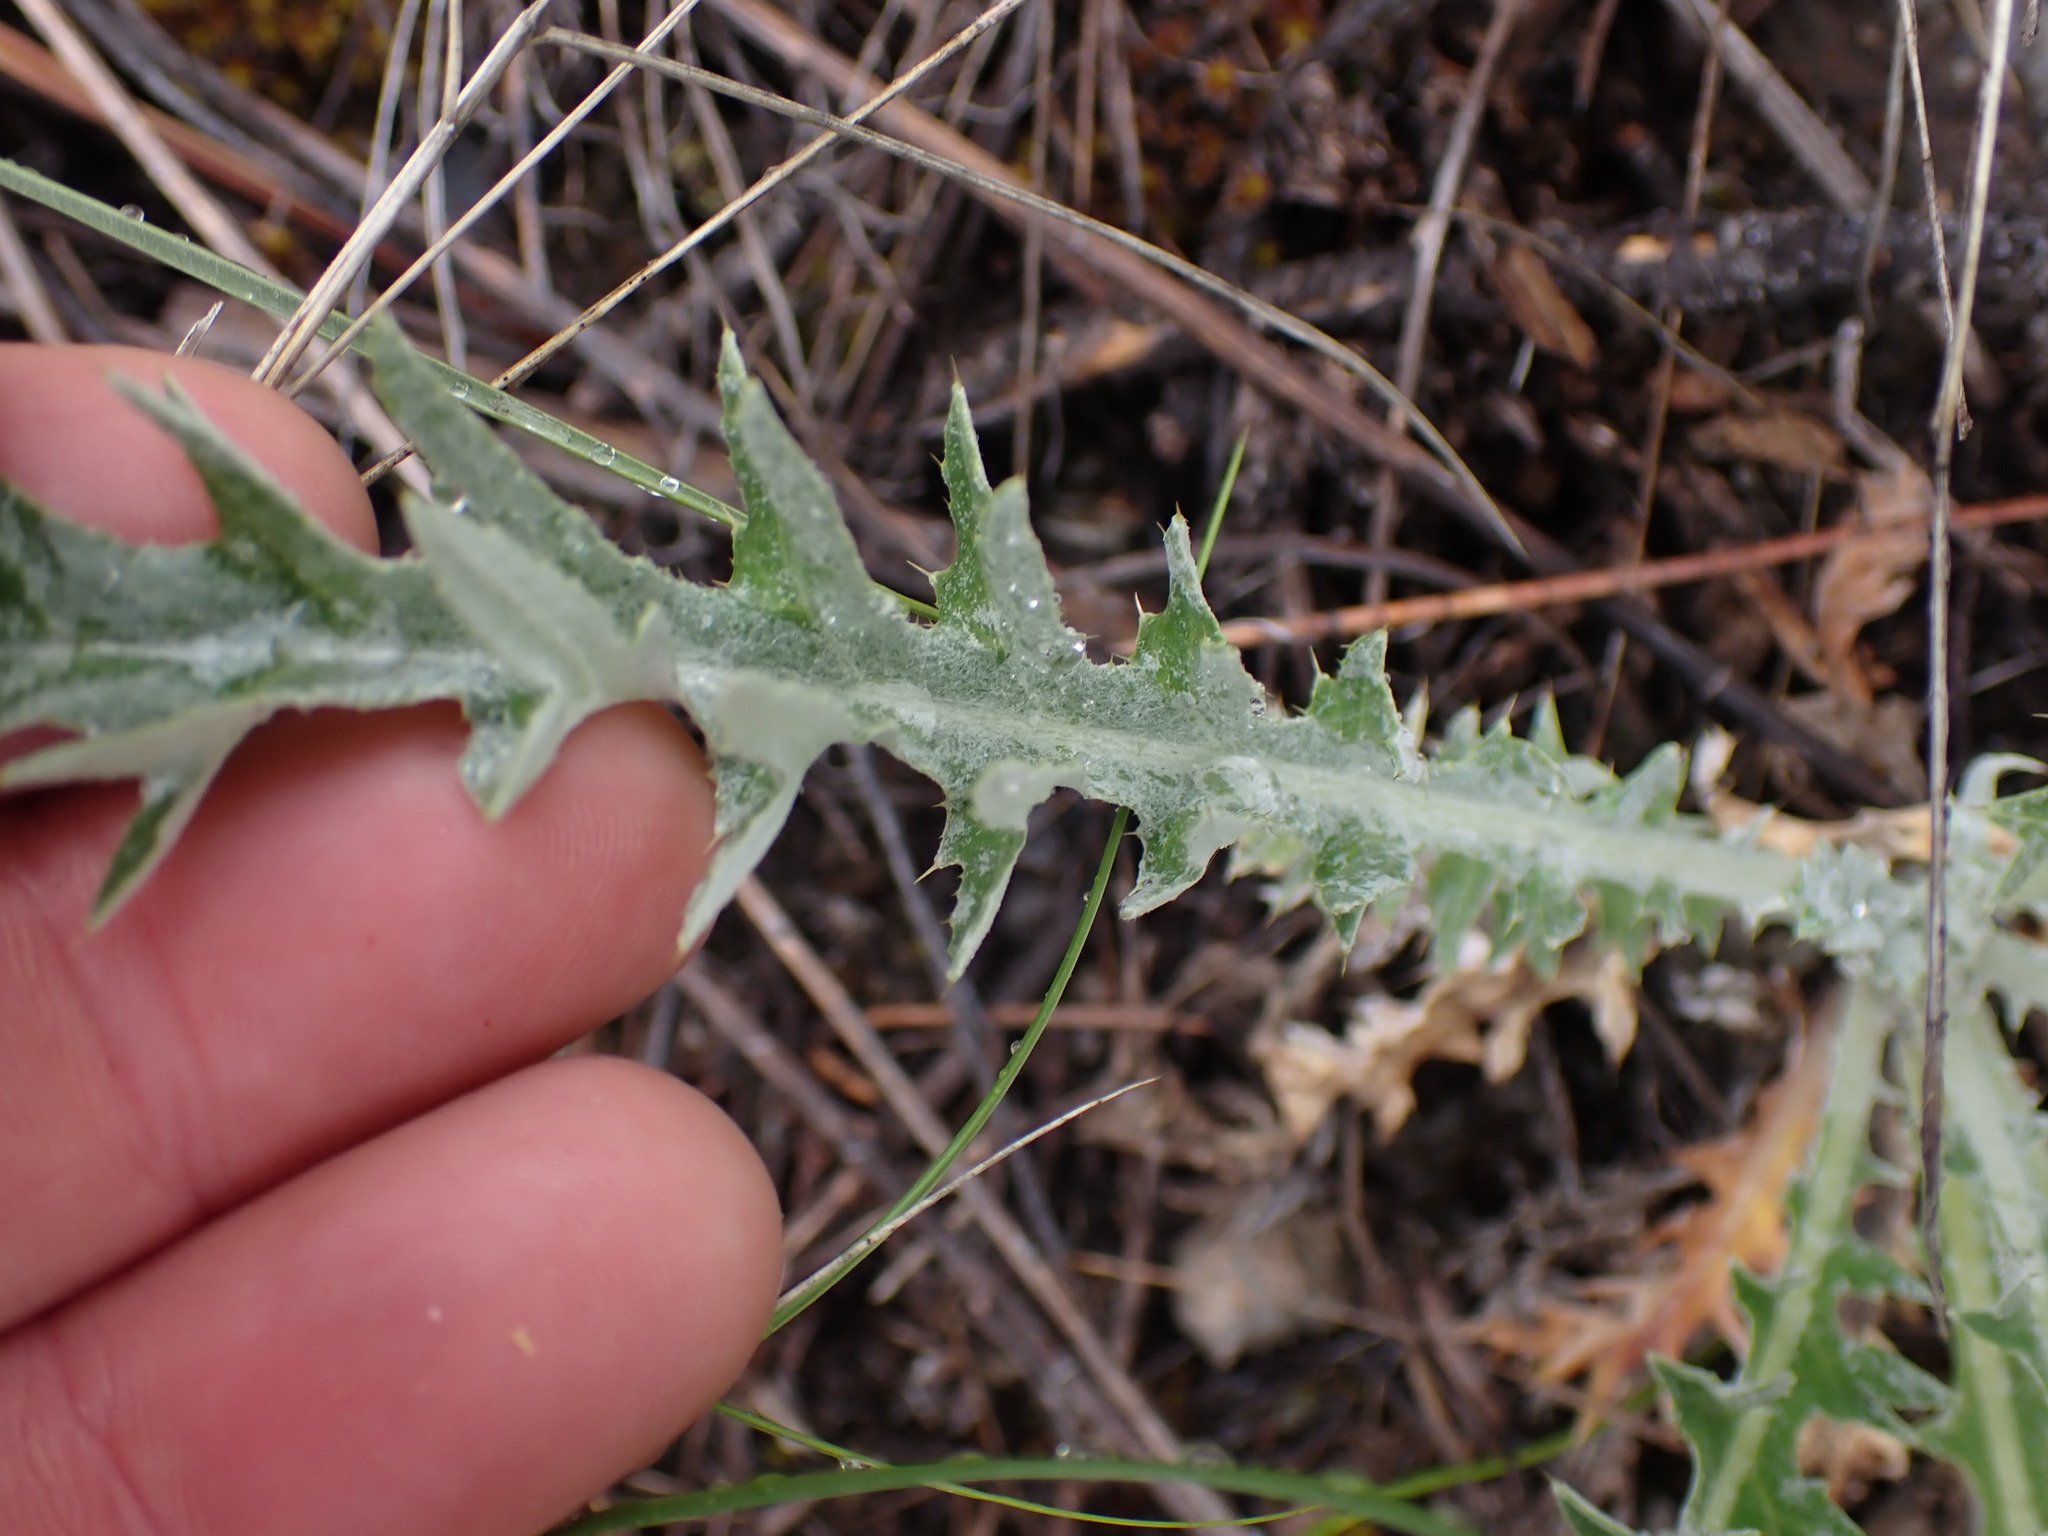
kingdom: Plantae
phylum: Tracheophyta
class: Magnoliopsida
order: Asterales
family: Asteraceae
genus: Cirsium
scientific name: Cirsium hookerianum
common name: Hooker's thistle
